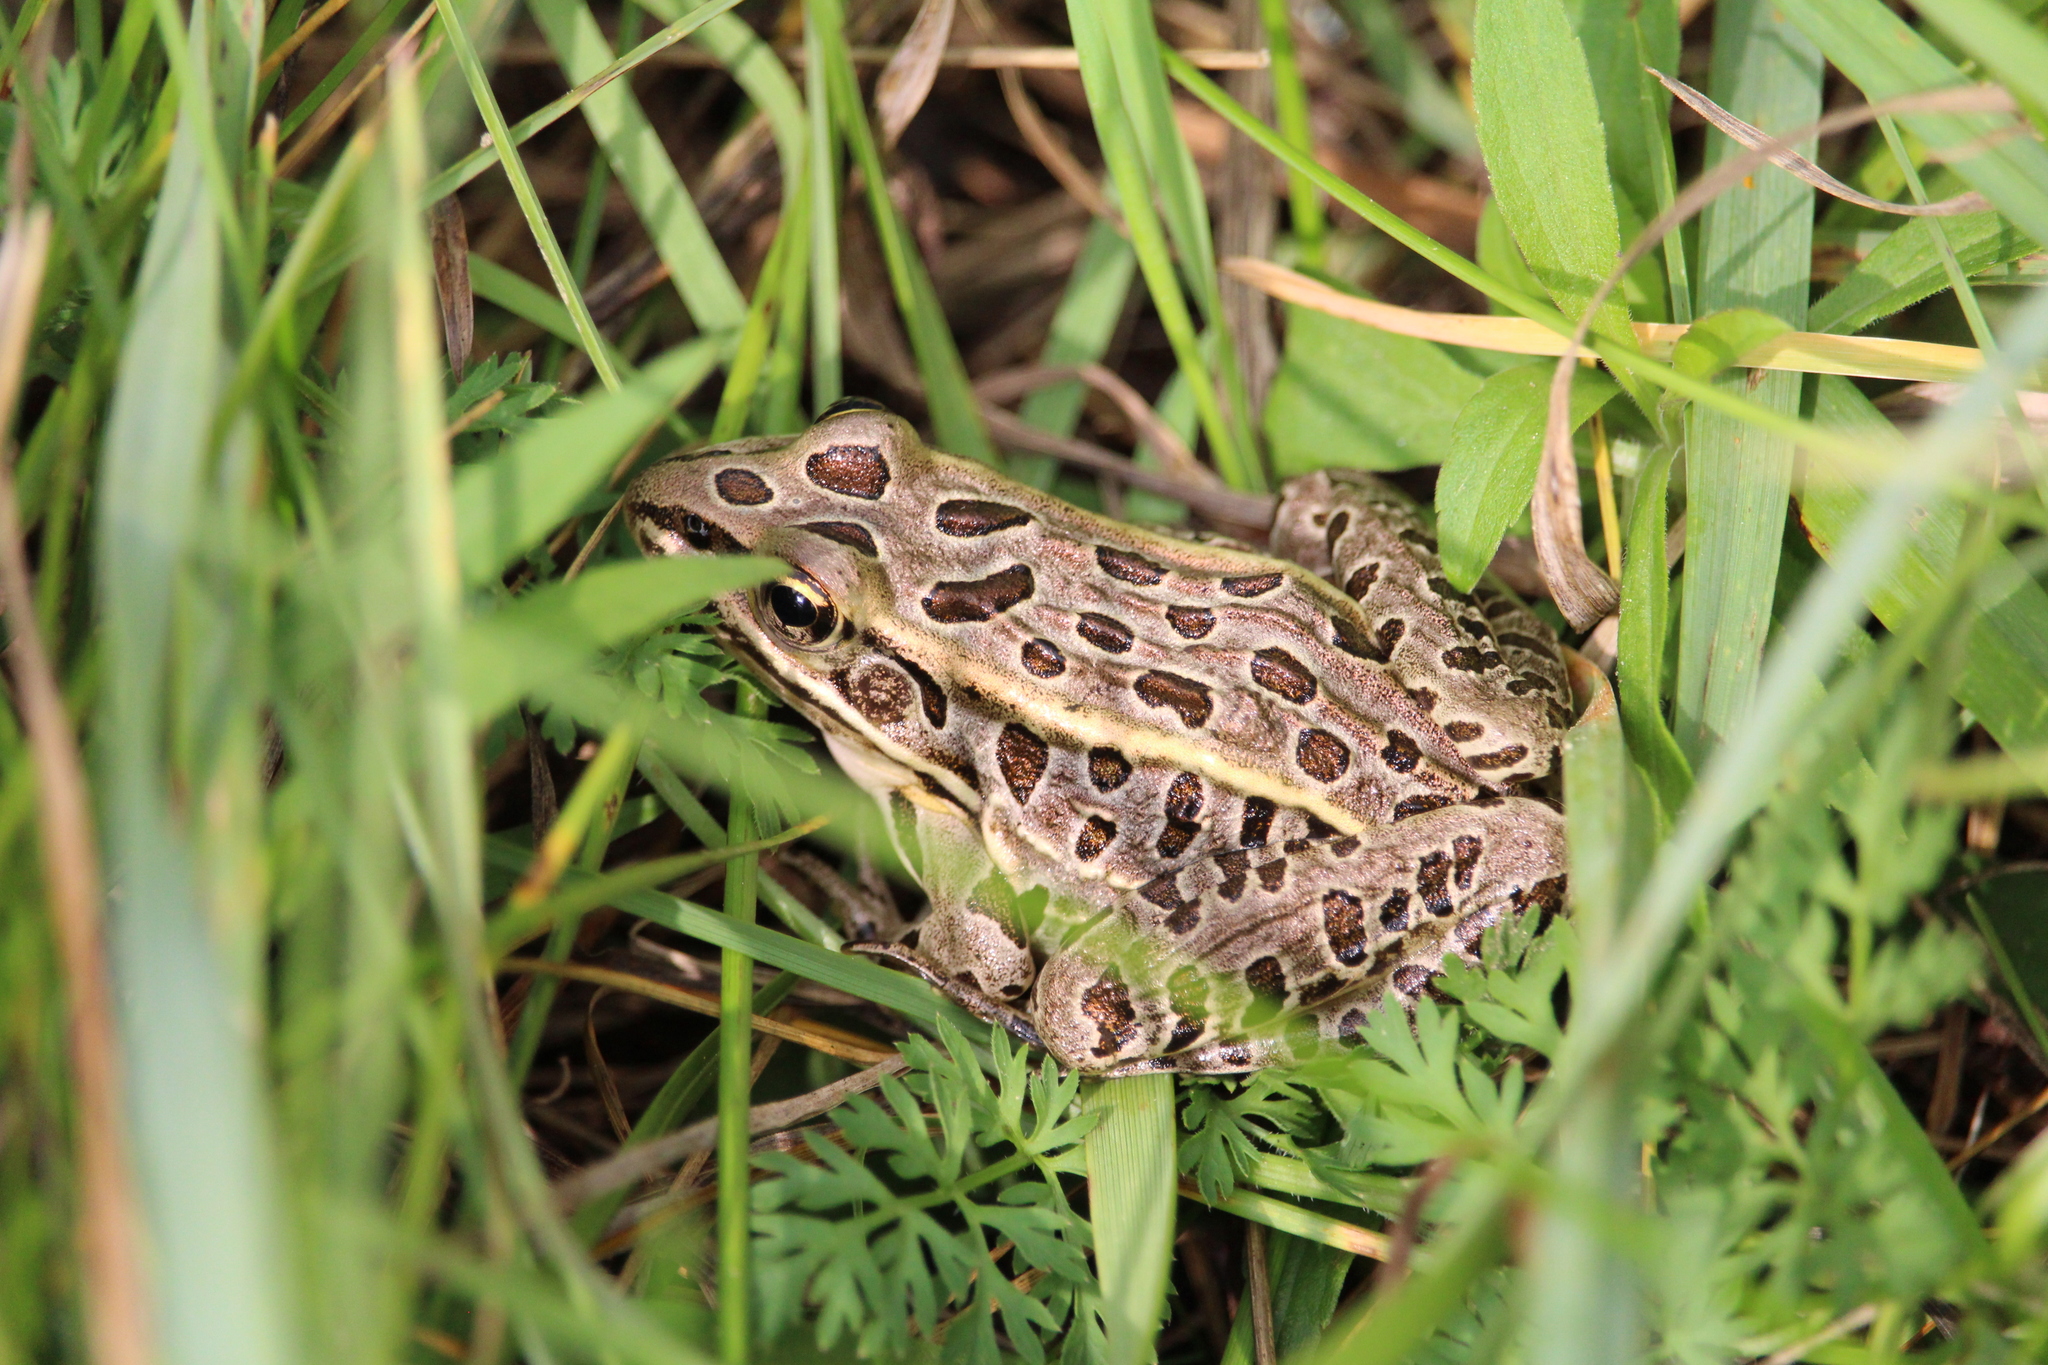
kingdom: Animalia
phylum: Chordata
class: Amphibia
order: Anura
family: Ranidae
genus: Lithobates
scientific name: Lithobates pipiens
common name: Northern leopard frog
